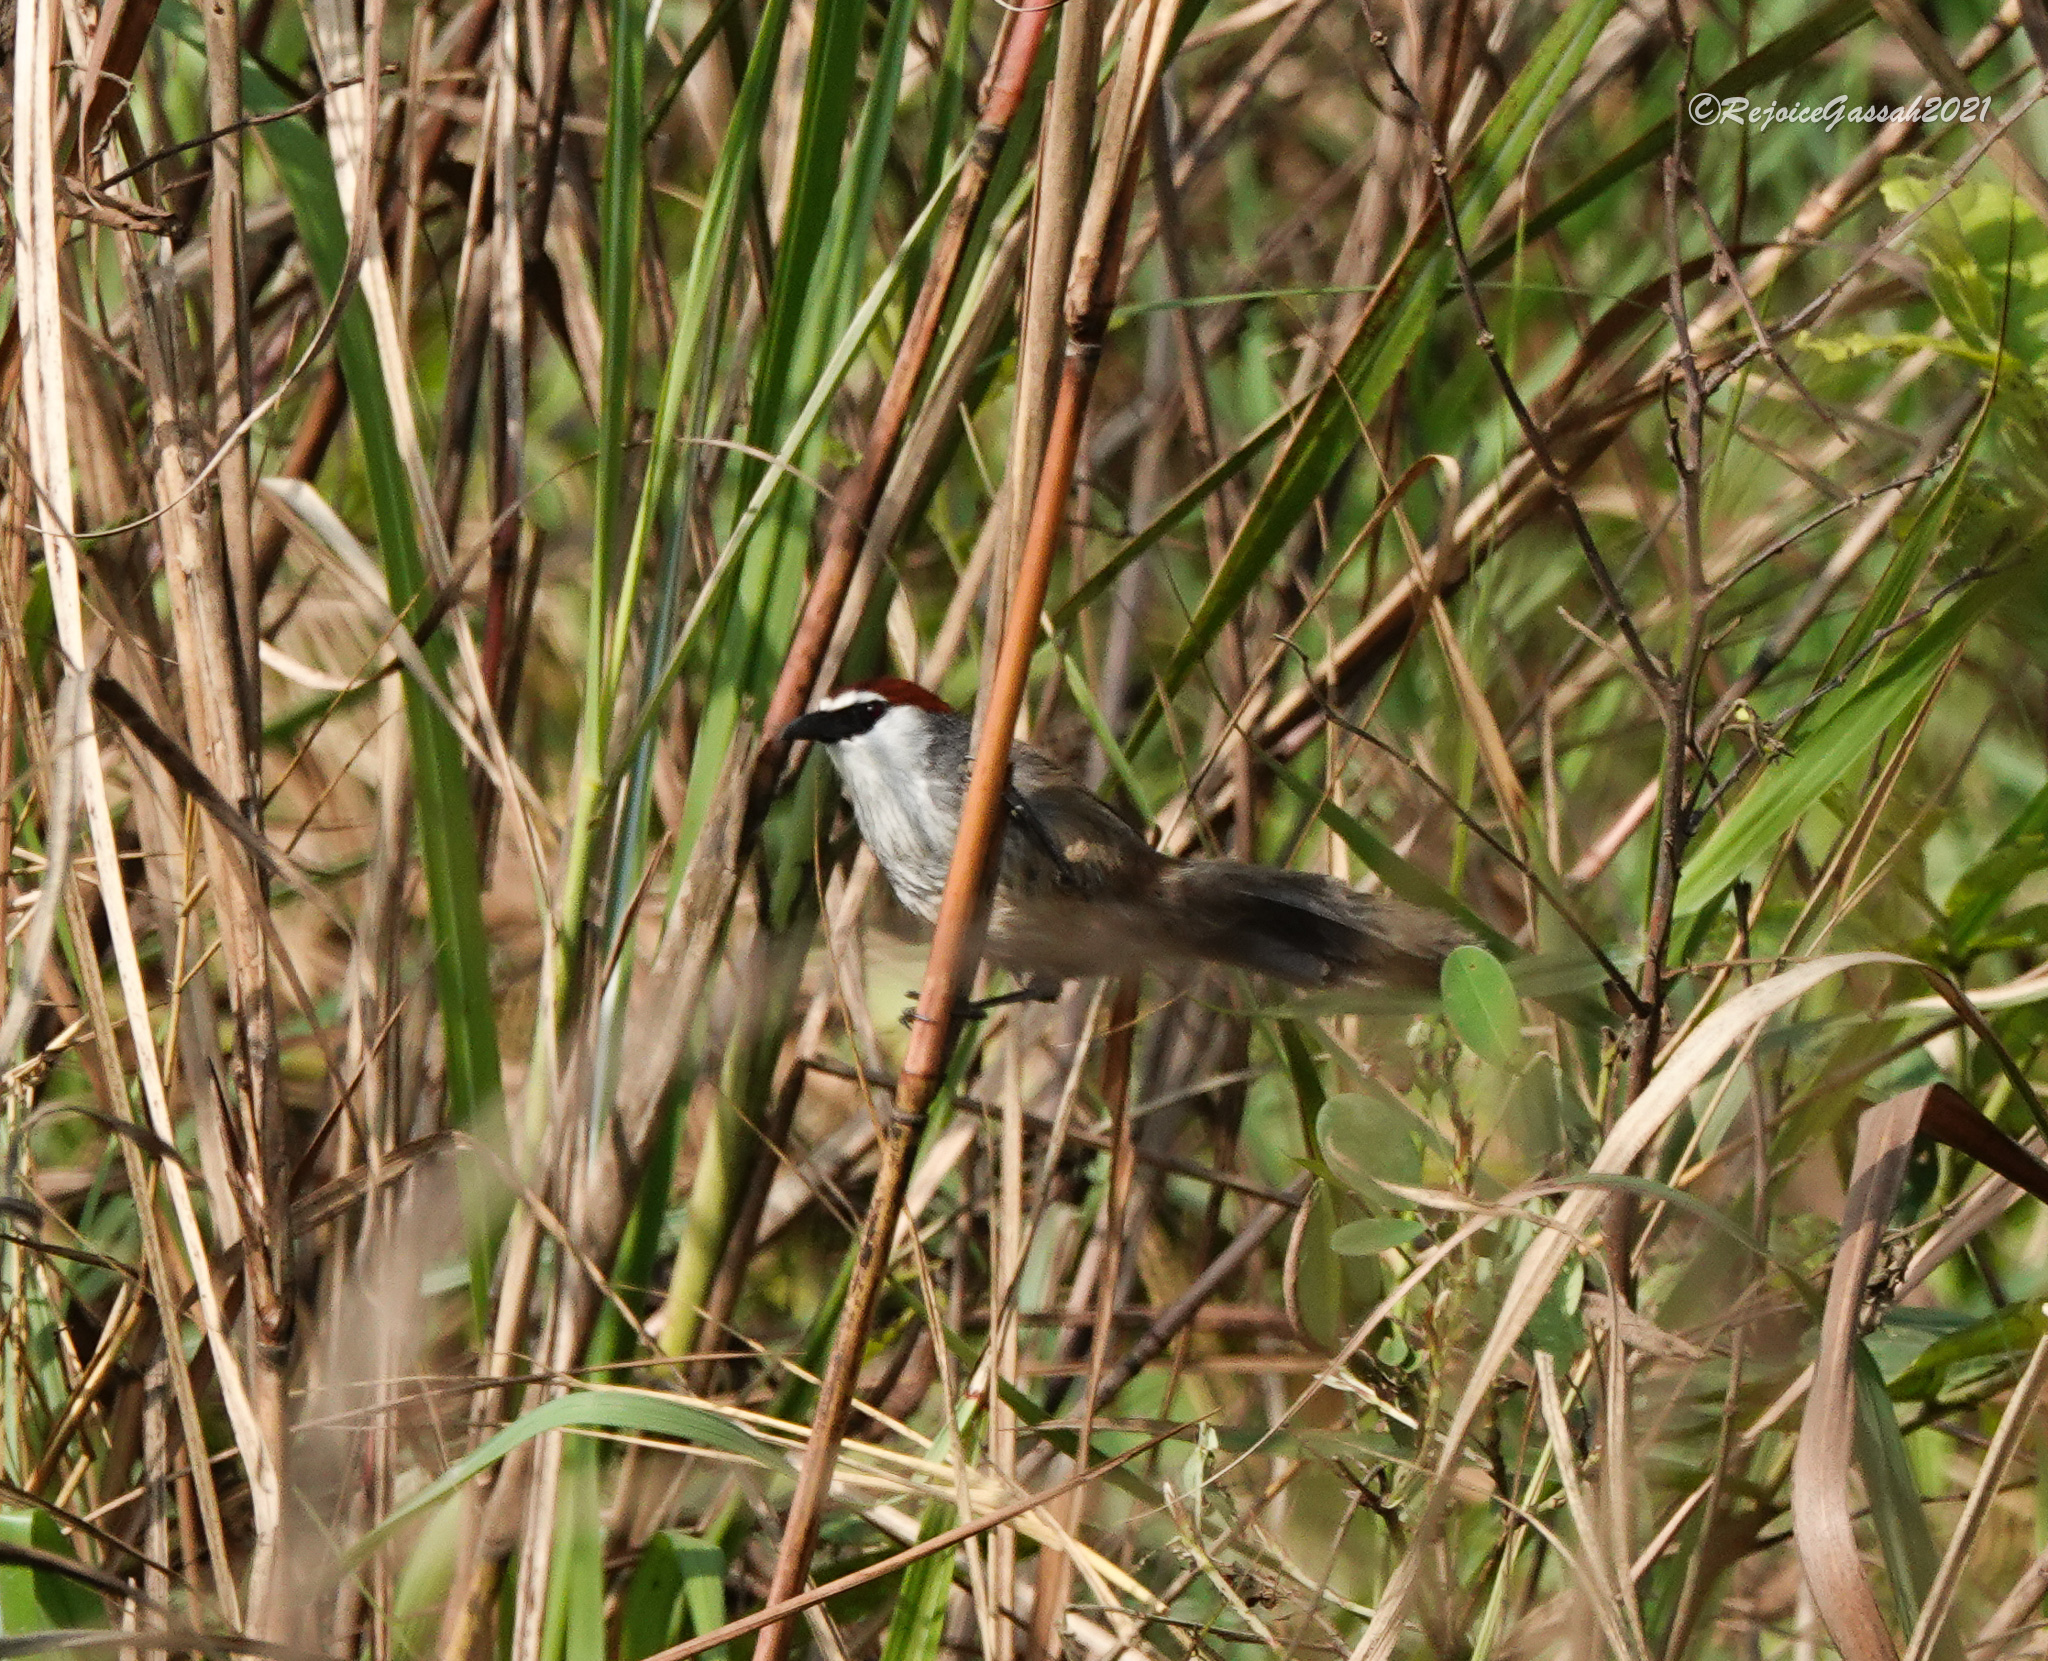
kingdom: Animalia
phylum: Chordata
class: Aves
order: Passeriformes
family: Timaliidae
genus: Timalia
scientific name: Timalia pileata
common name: Chestnut-capped babbler
